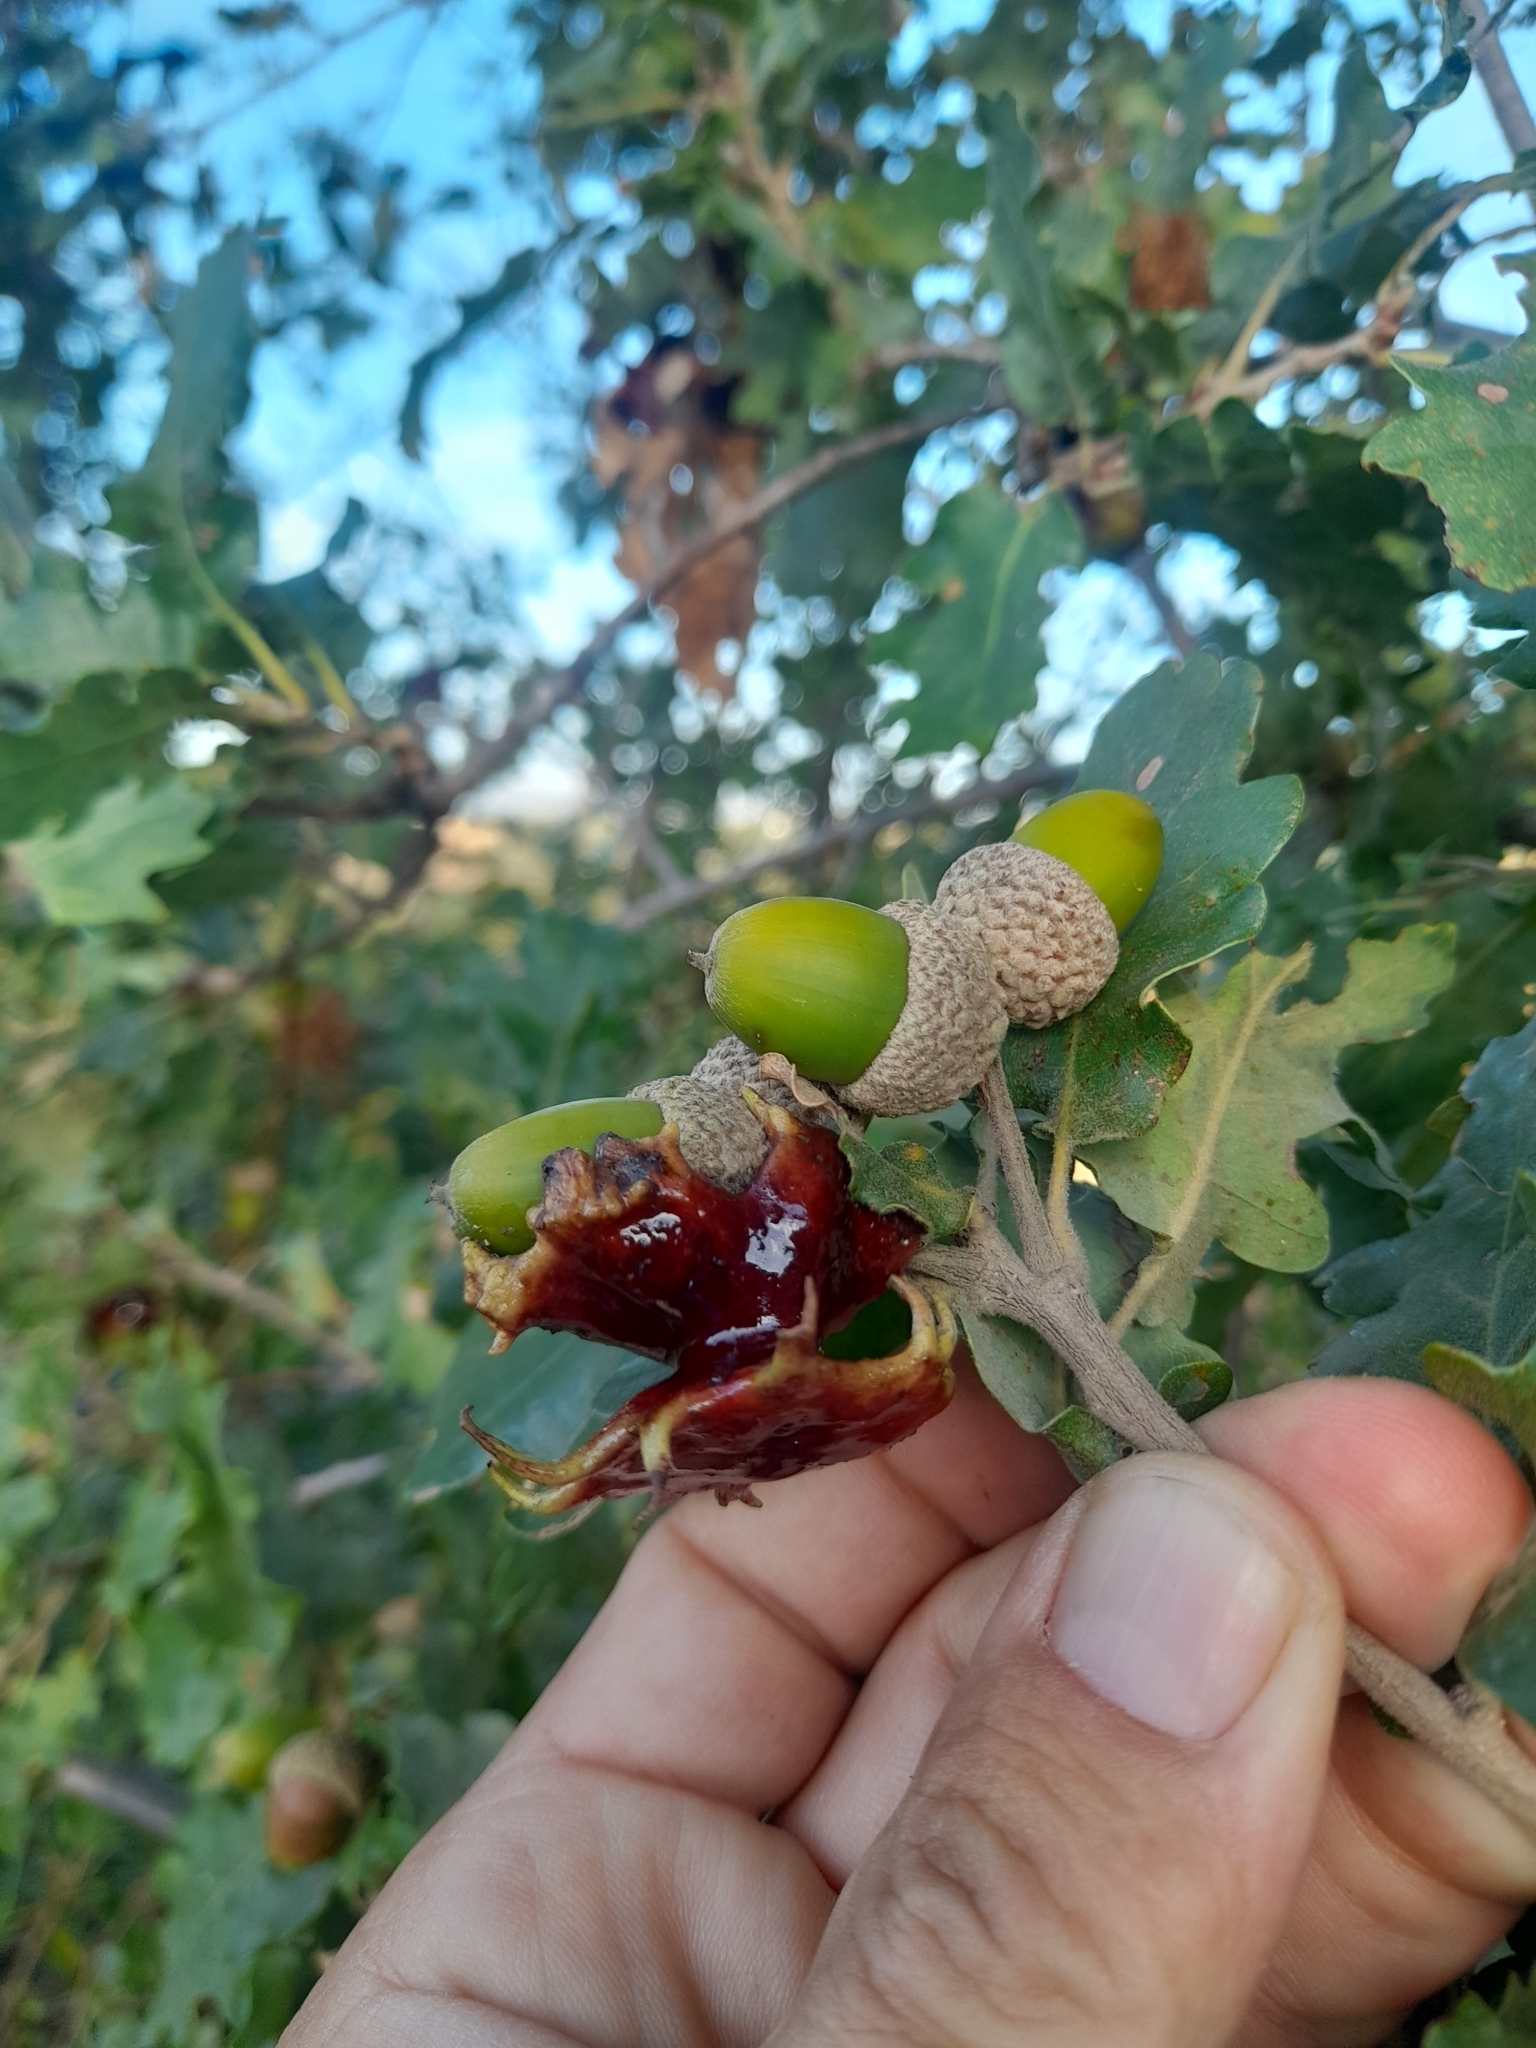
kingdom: Animalia
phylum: Arthropoda
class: Insecta
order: Hymenoptera
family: Cynipidae
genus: Andricus
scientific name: Andricus dentimitratus
